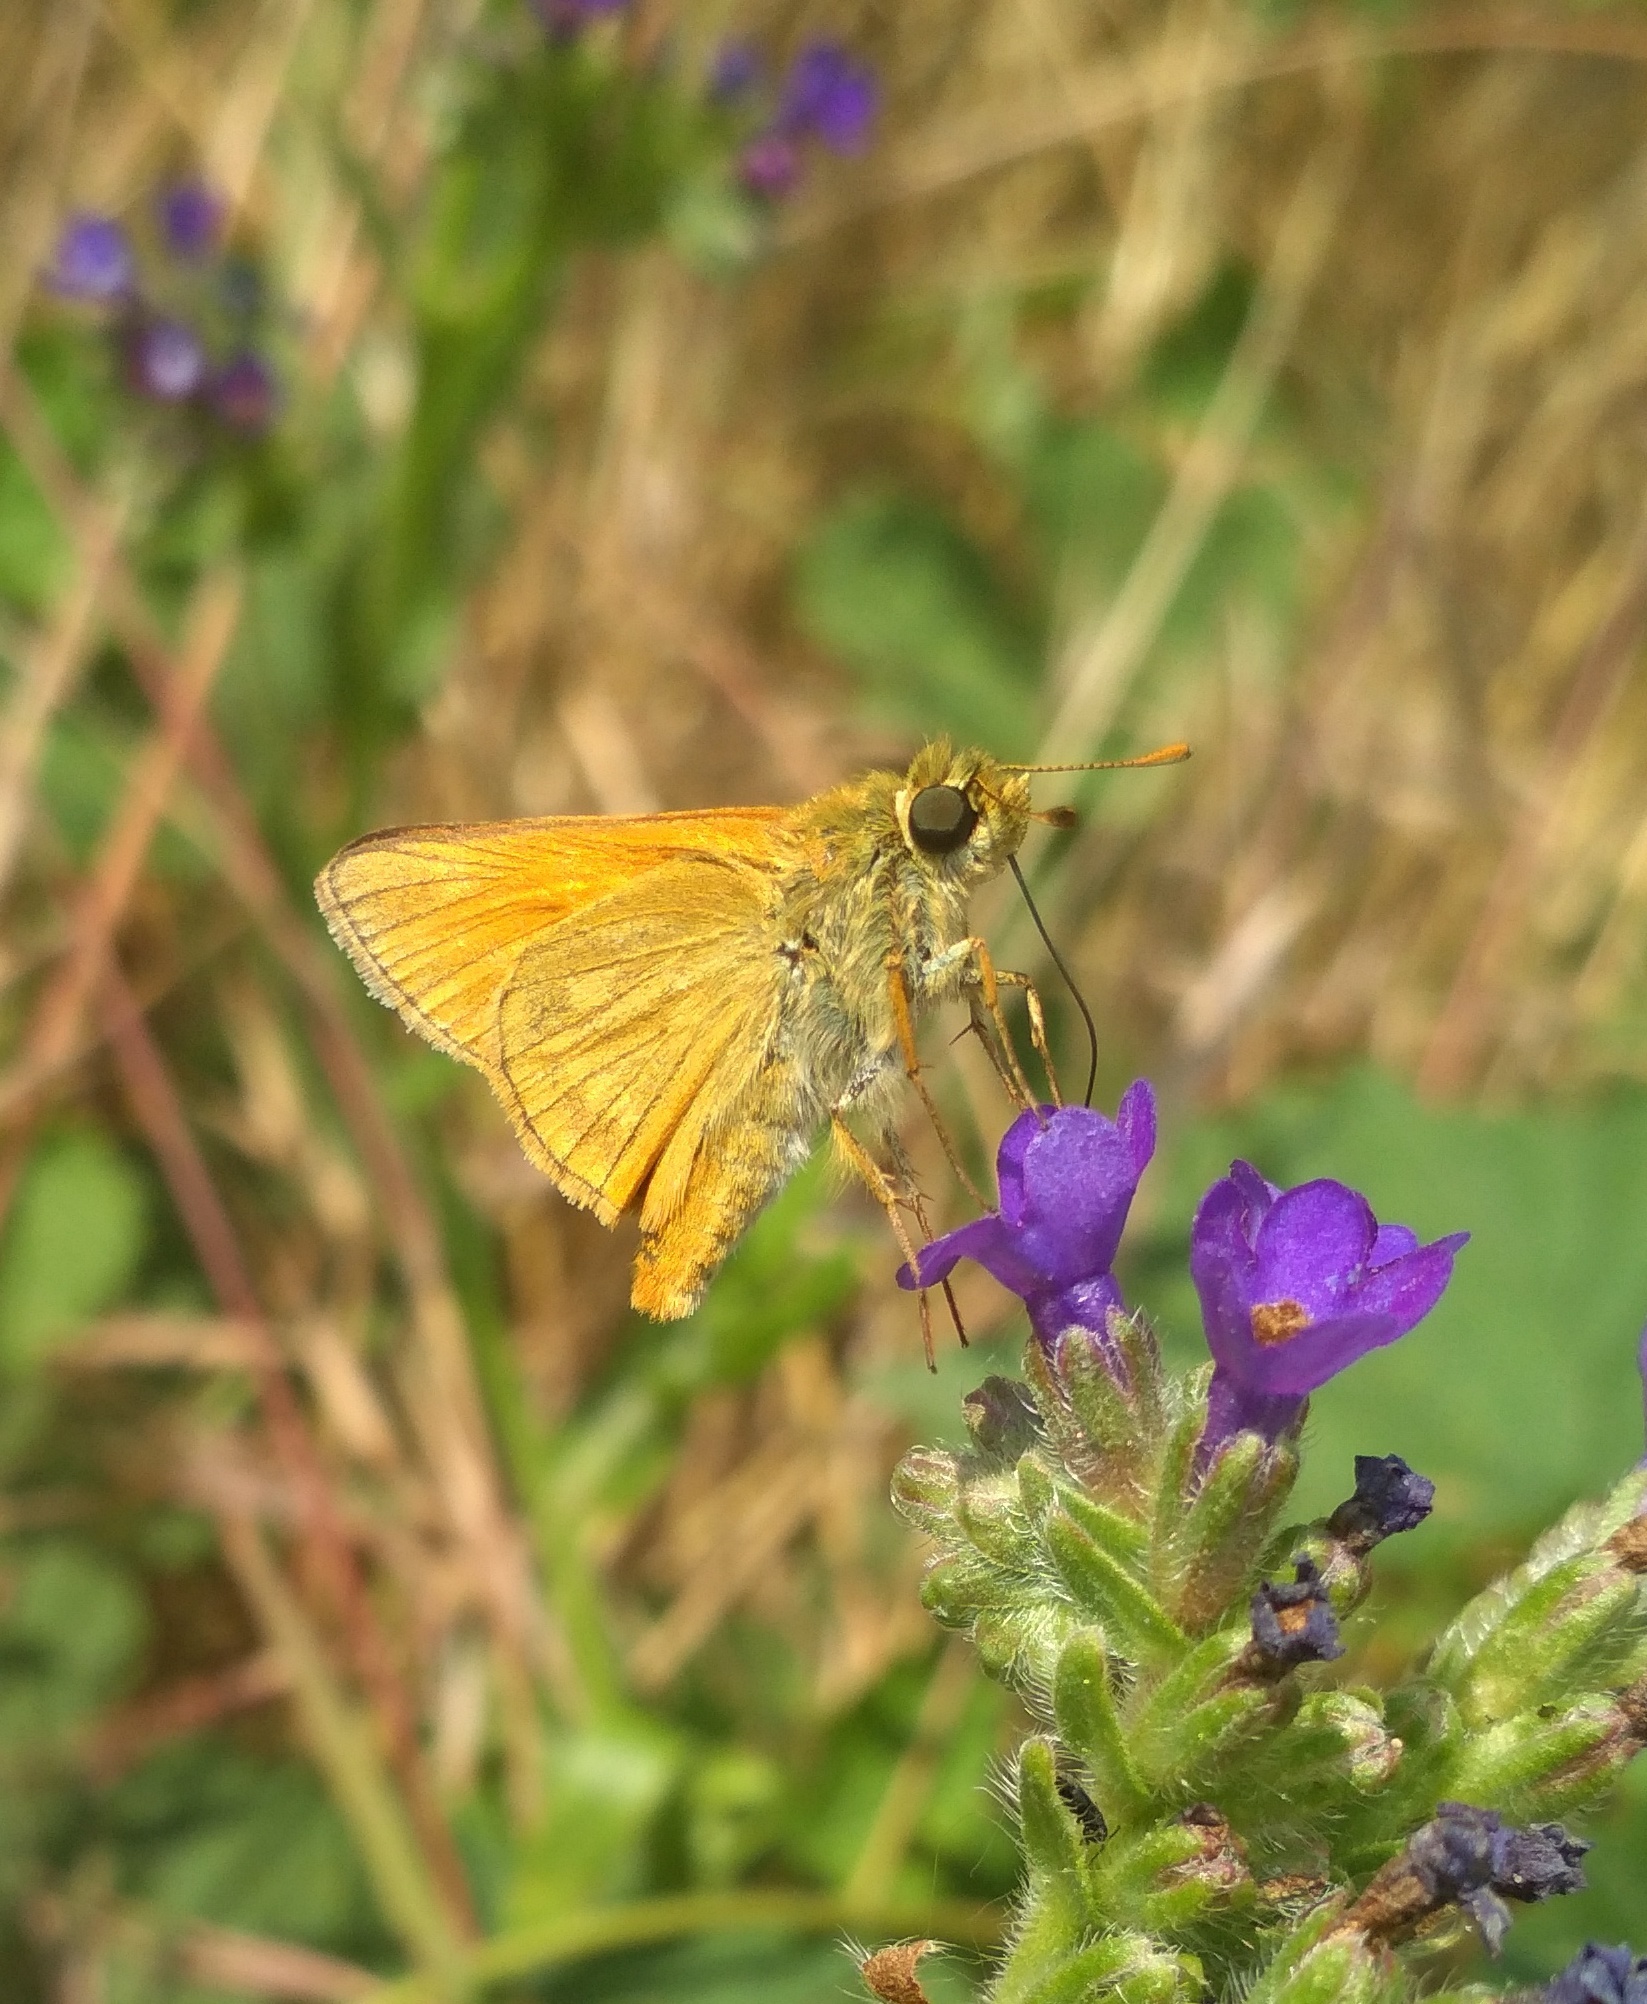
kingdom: Animalia
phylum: Arthropoda
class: Insecta
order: Lepidoptera
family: Hesperiidae
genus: Ochlodes
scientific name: Ochlodes venata
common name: Large skipper
